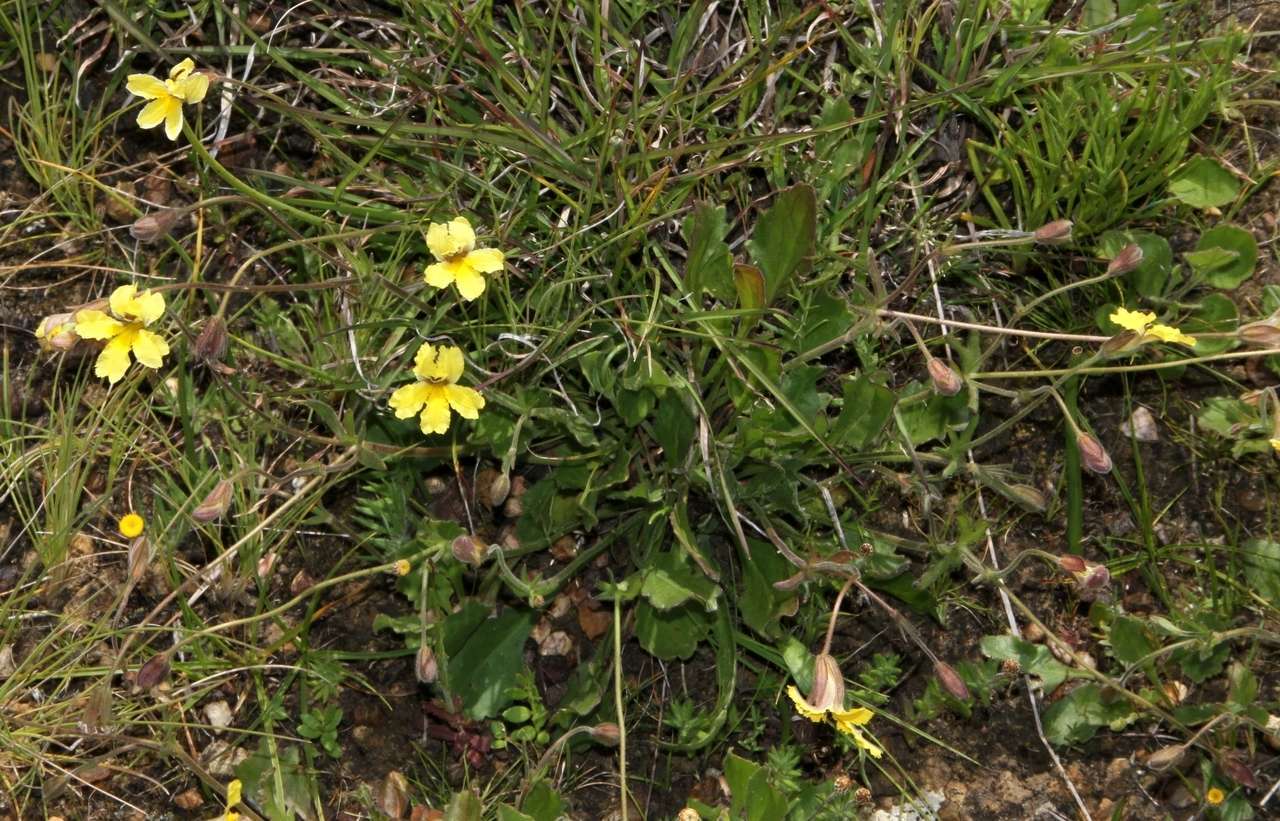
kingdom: Plantae
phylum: Tracheophyta
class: Magnoliopsida
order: Asterales
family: Goodeniaceae
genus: Goodenia
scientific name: Goodenia paradoxa
